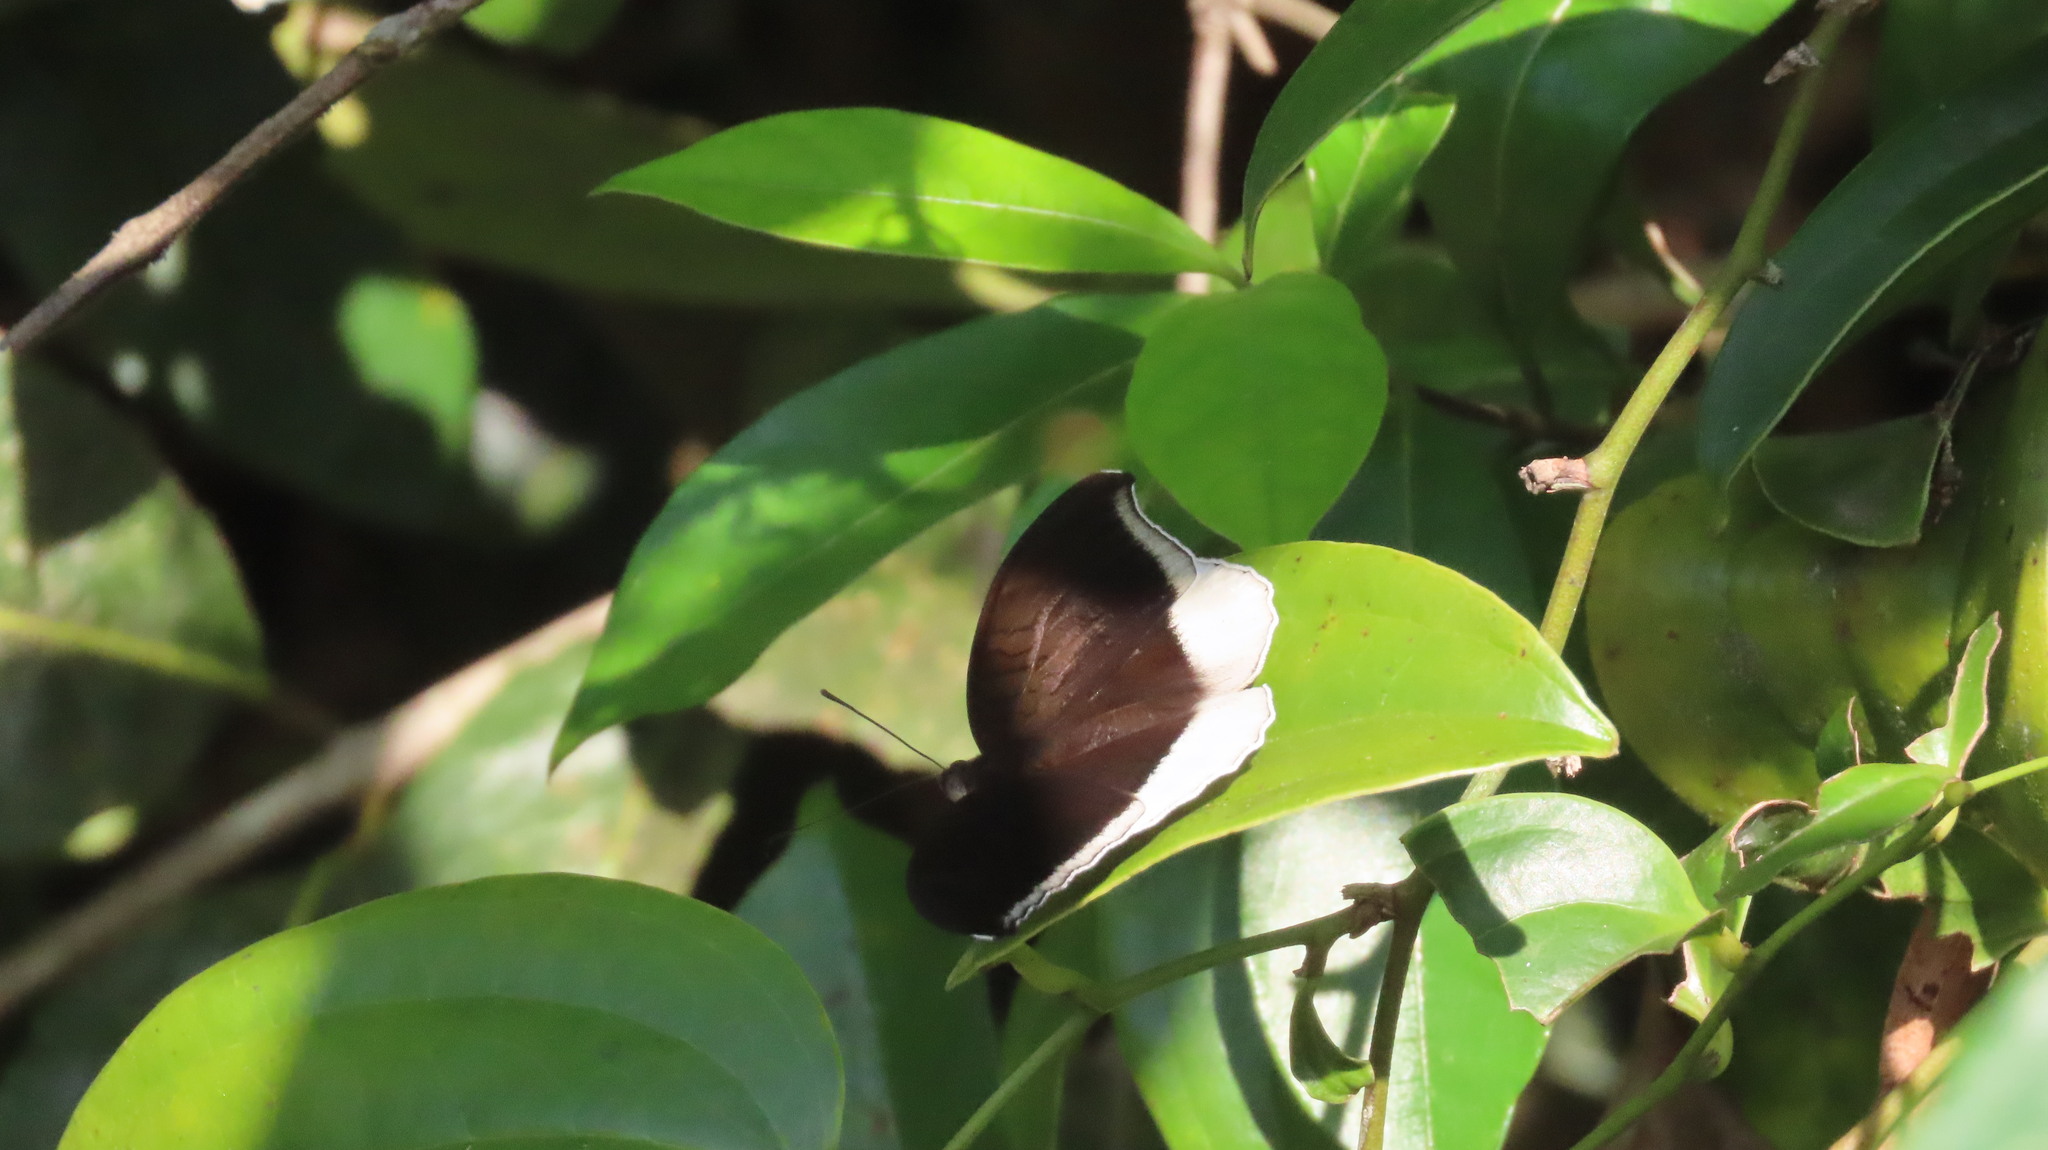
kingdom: Animalia
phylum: Arthropoda
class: Insecta
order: Lepidoptera
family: Nymphalidae
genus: Tanaecia
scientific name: Tanaecia lepidea
